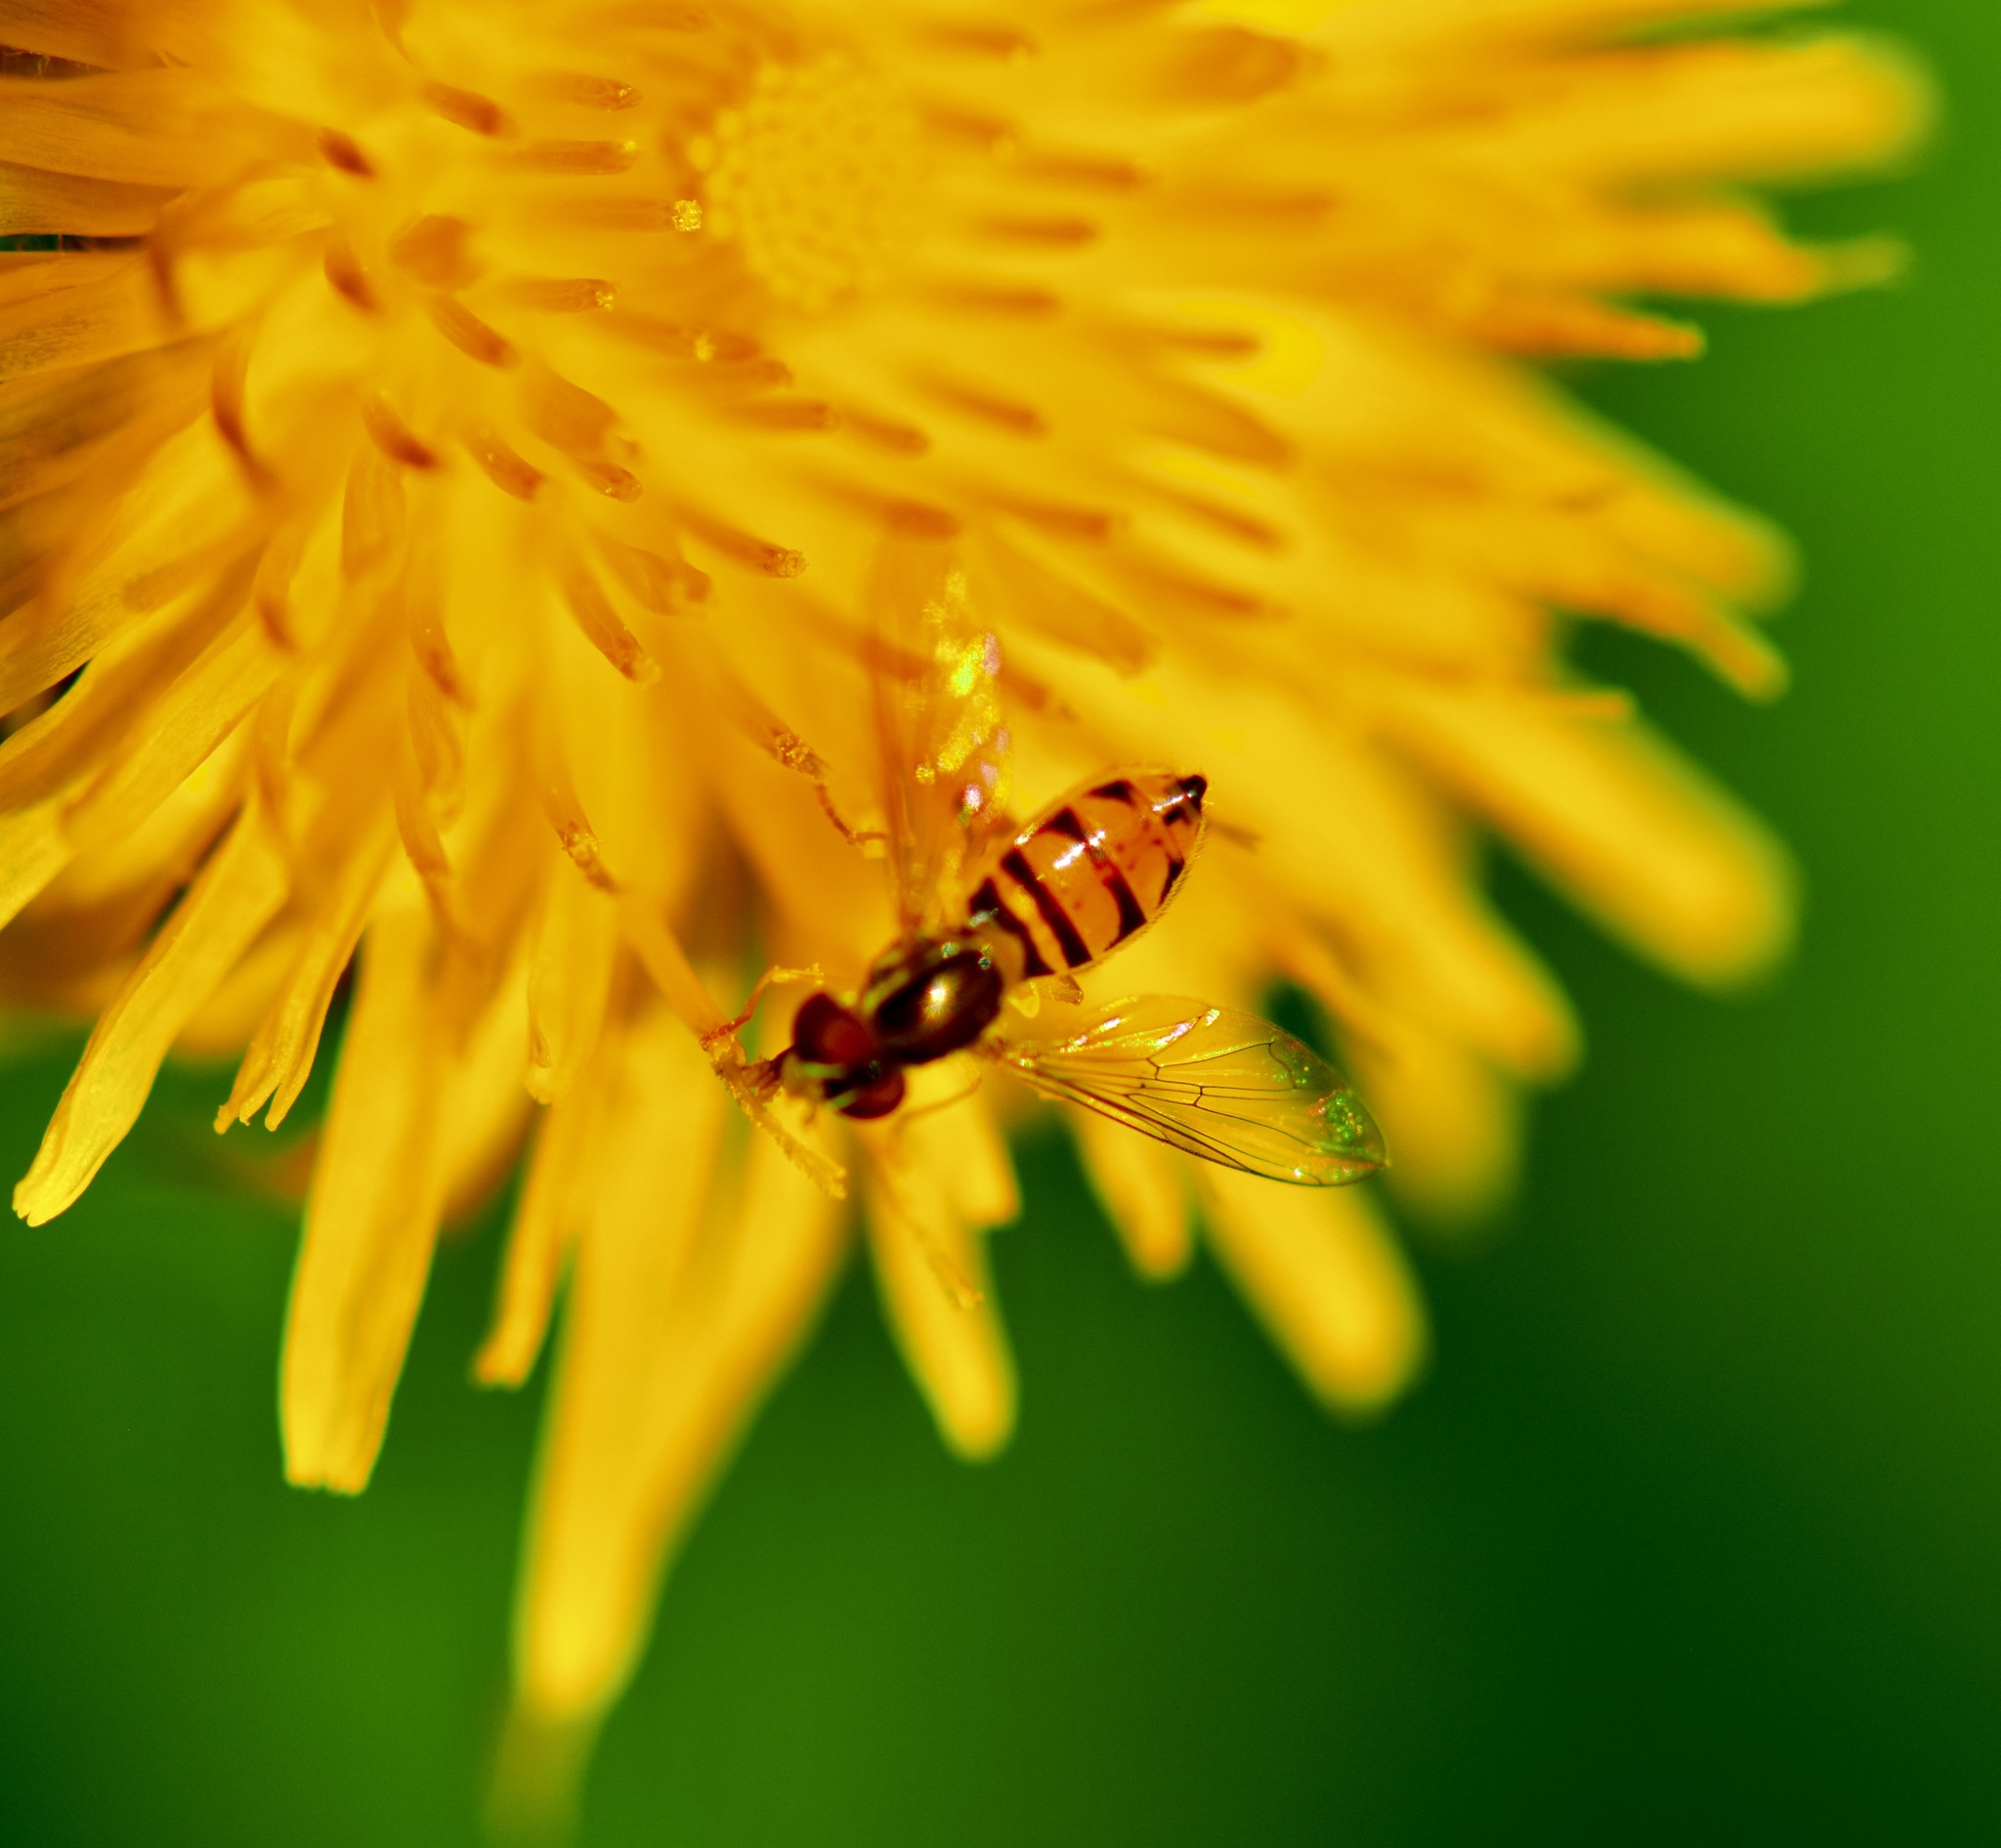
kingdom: Animalia
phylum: Arthropoda
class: Insecta
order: Diptera
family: Syrphidae
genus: Toxomerus
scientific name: Toxomerus marginatus
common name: Syrphid fly
